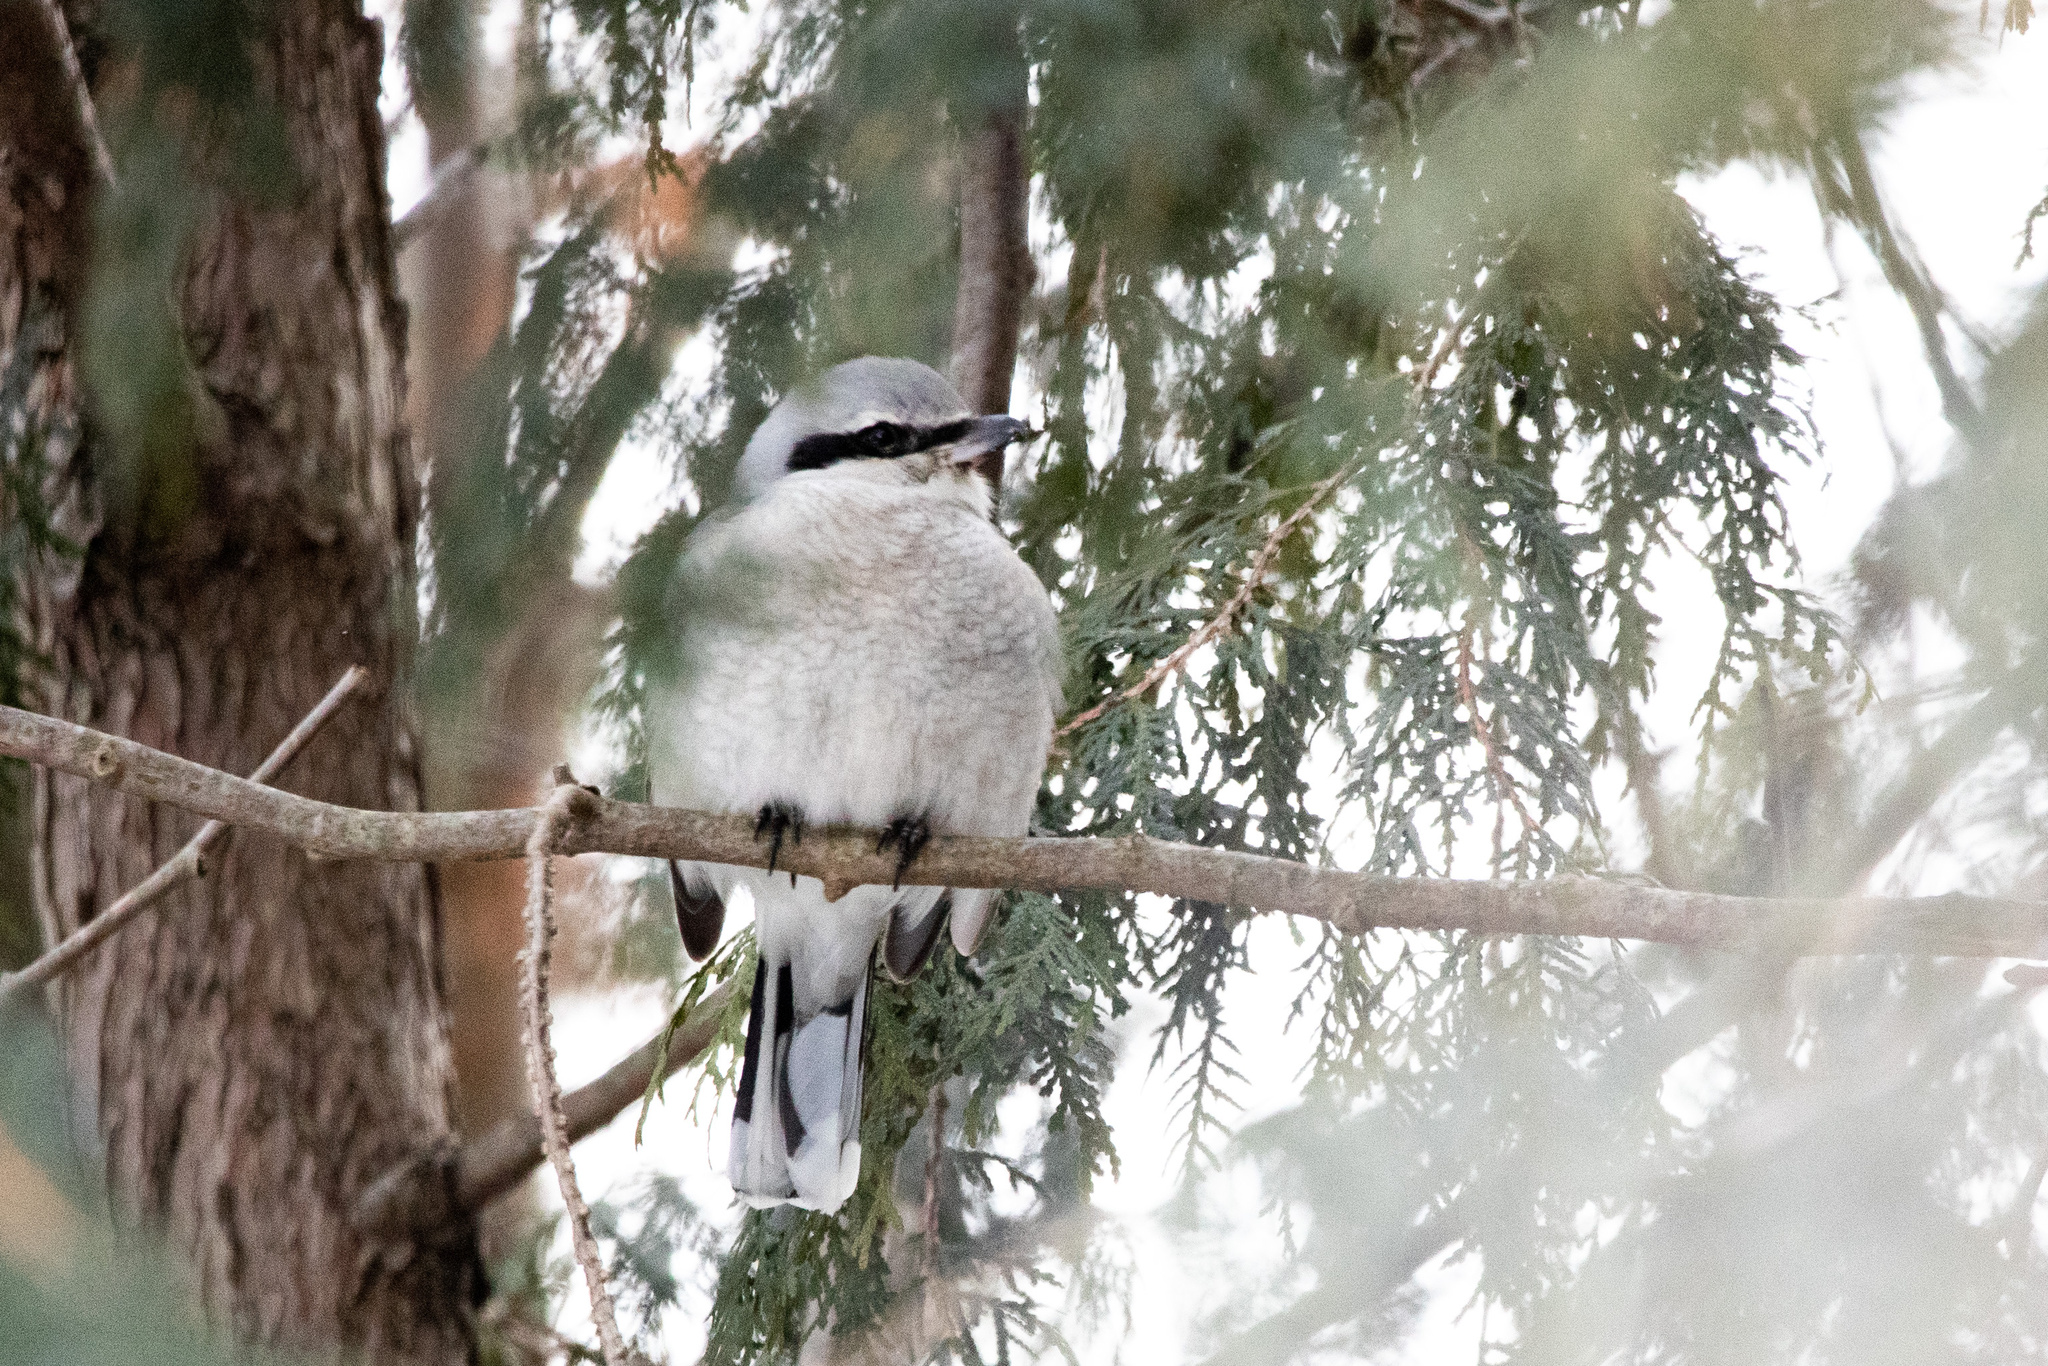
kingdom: Animalia
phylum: Chordata
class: Aves
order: Passeriformes
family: Laniidae
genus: Lanius
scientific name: Lanius borealis
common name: Northern shrike
